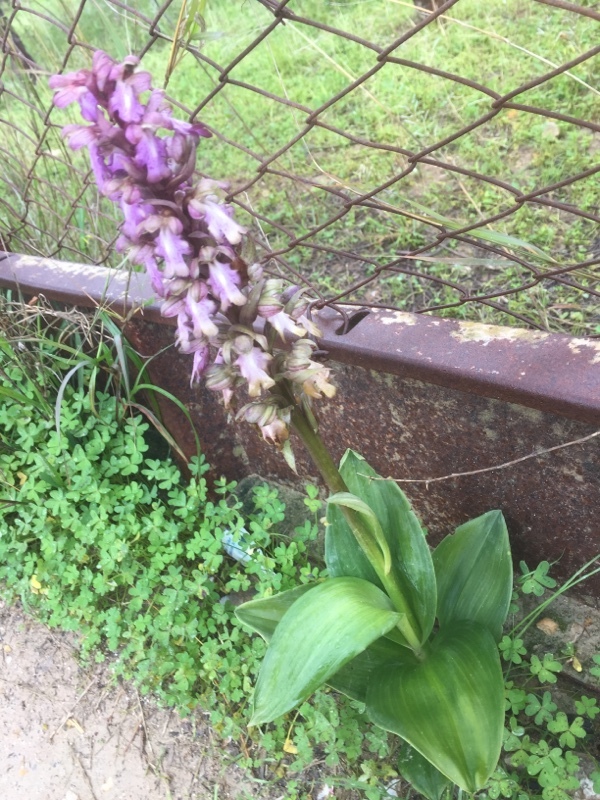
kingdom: Plantae
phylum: Tracheophyta
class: Liliopsida
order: Asparagales
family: Orchidaceae
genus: Himantoglossum
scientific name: Himantoglossum robertianum
